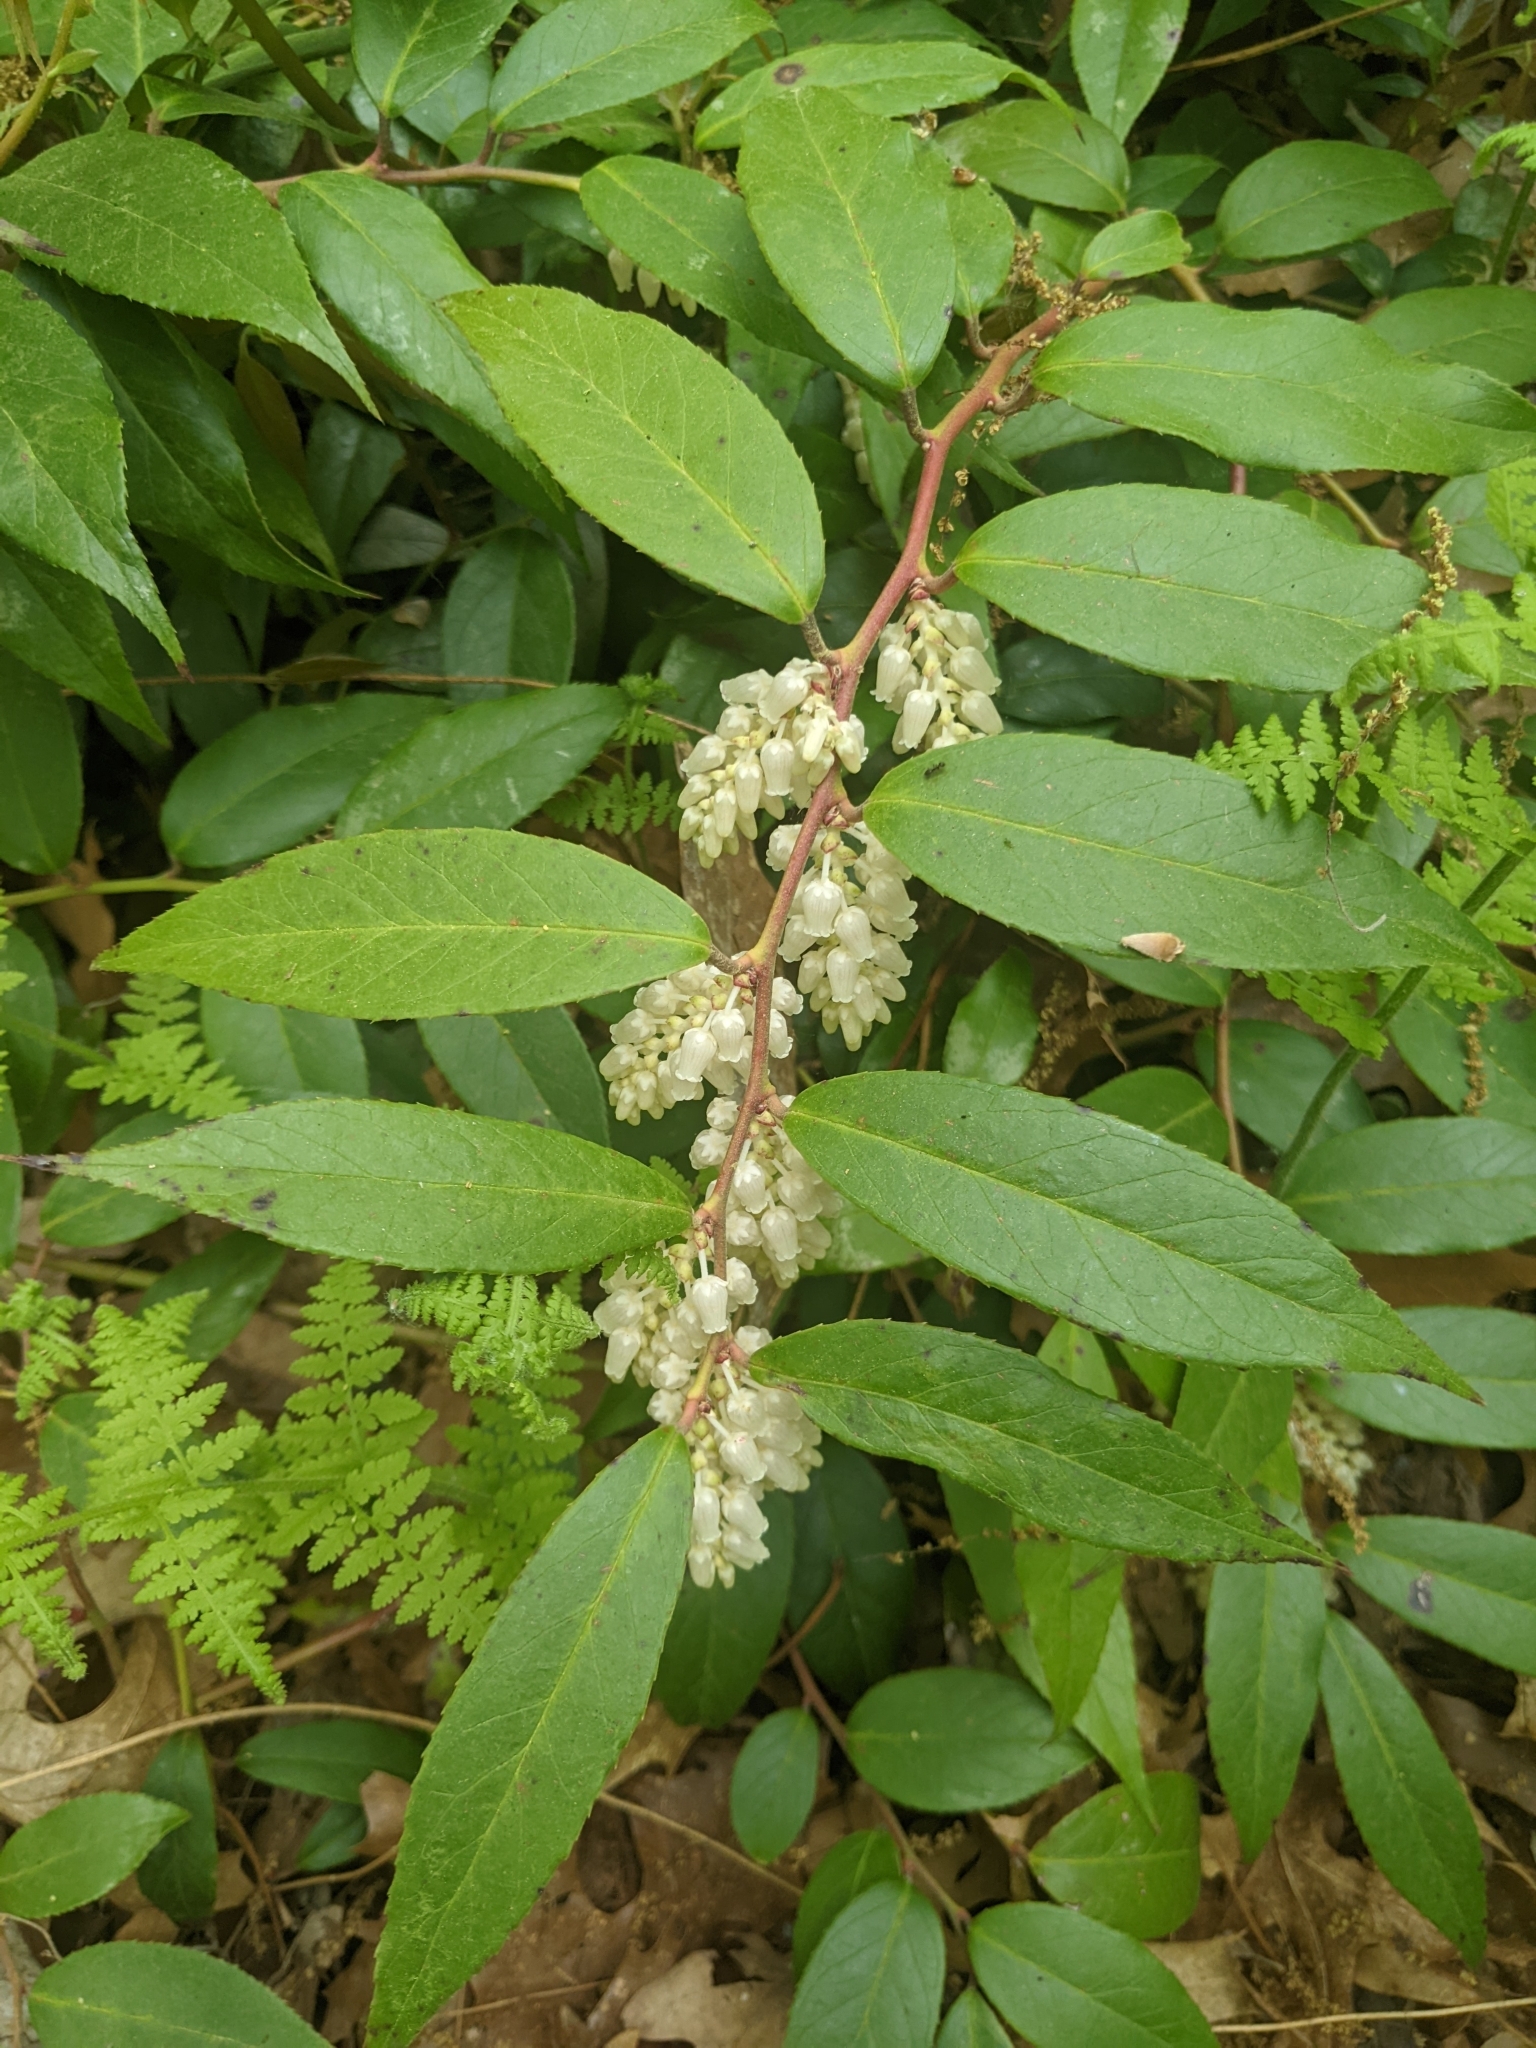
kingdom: Plantae
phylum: Tracheophyta
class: Magnoliopsida
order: Ericales
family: Ericaceae
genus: Leucothoe
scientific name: Leucothoe fontanesiana
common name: Fetterbush
